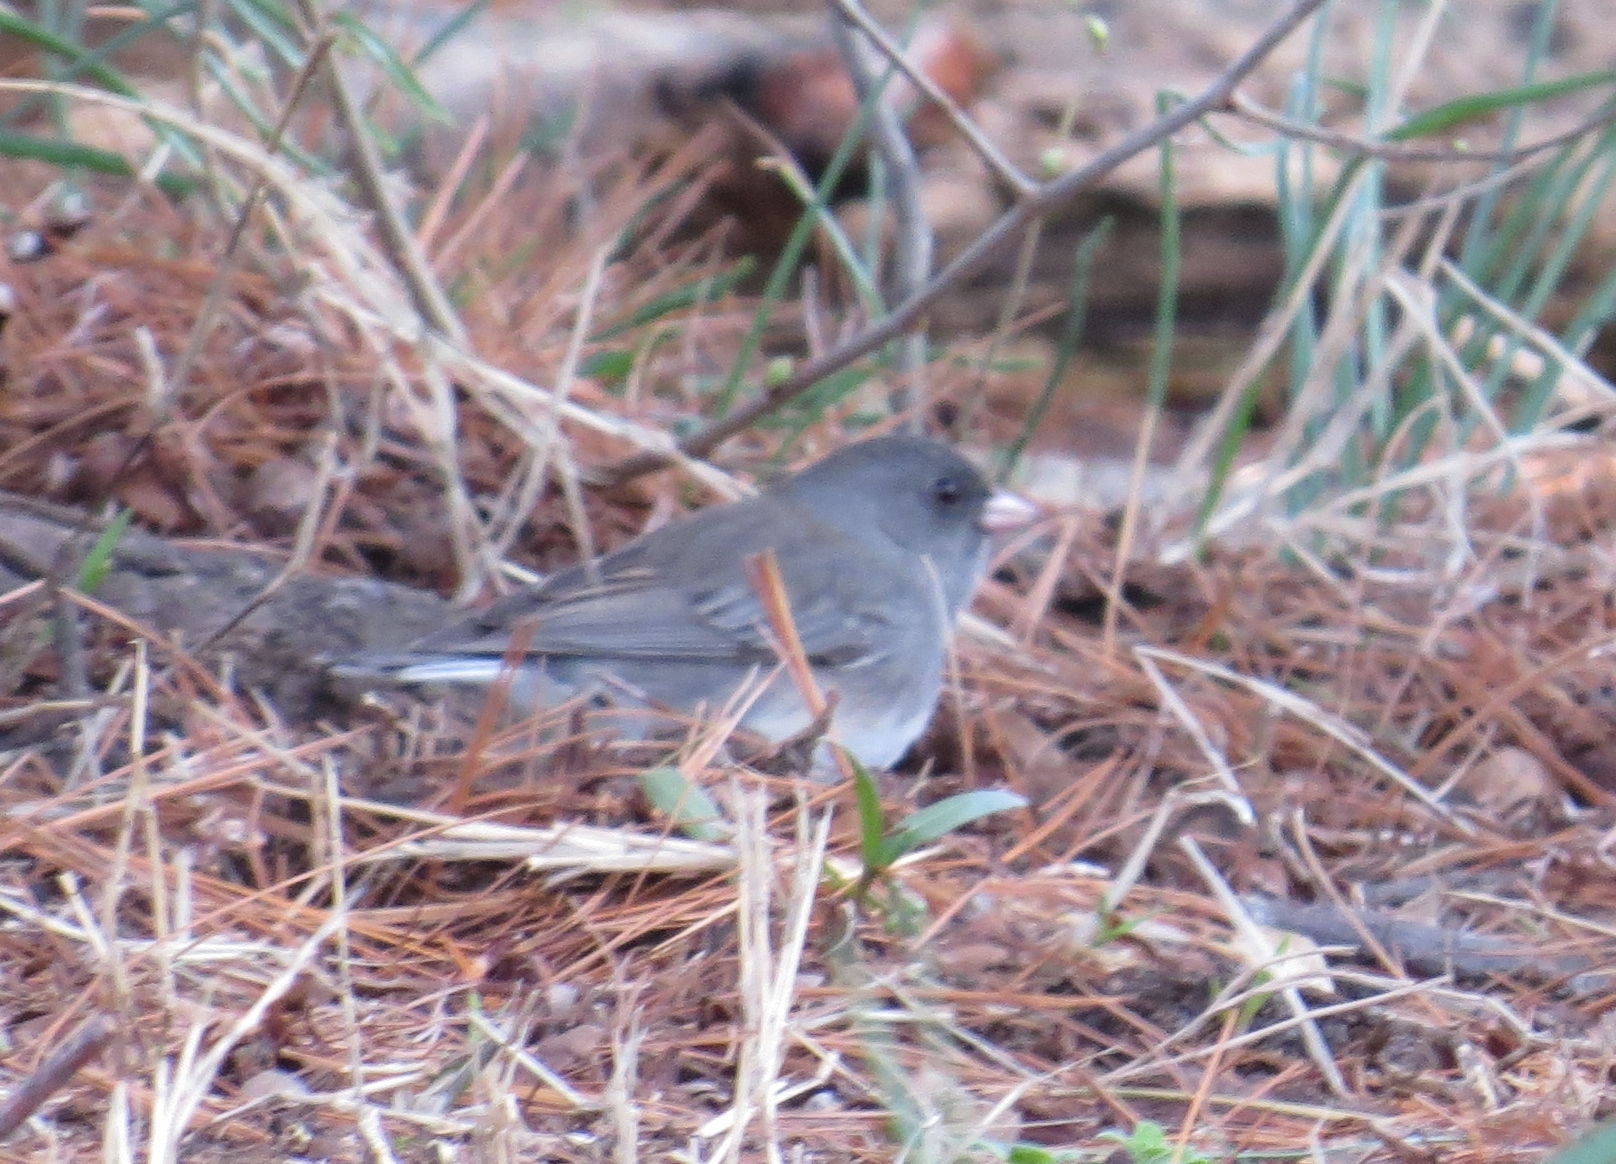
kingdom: Animalia
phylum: Chordata
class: Aves
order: Passeriformes
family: Passerellidae
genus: Junco
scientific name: Junco hyemalis
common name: Dark-eyed junco
